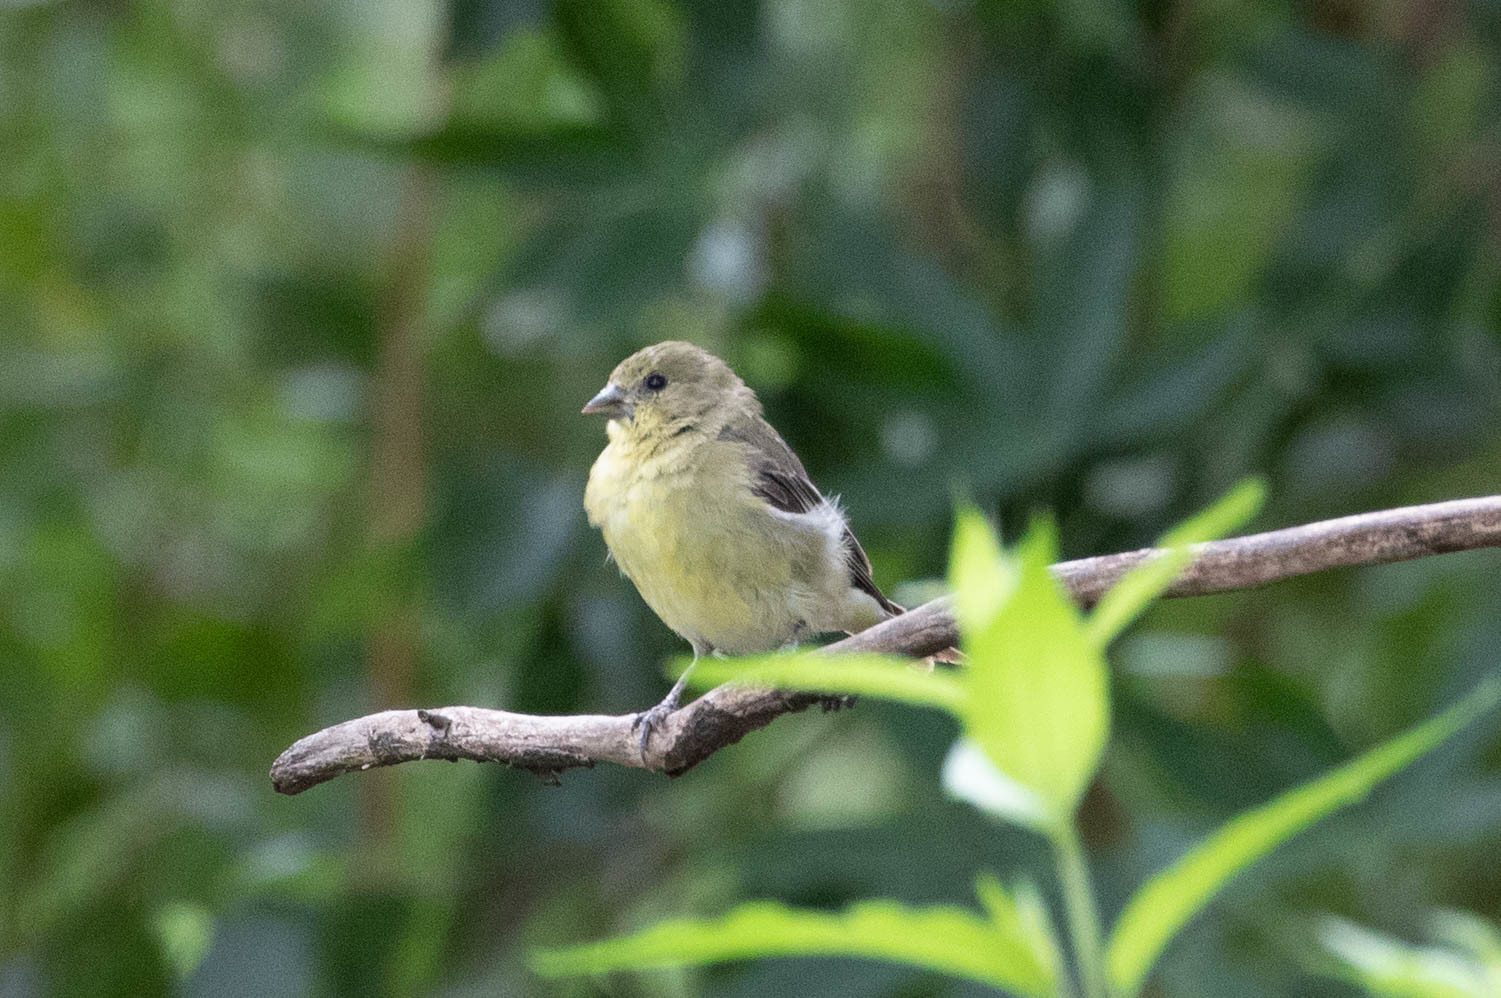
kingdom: Animalia
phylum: Chordata
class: Aves
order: Passeriformes
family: Fringillidae
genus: Spinus
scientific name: Spinus psaltria
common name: Lesser goldfinch
